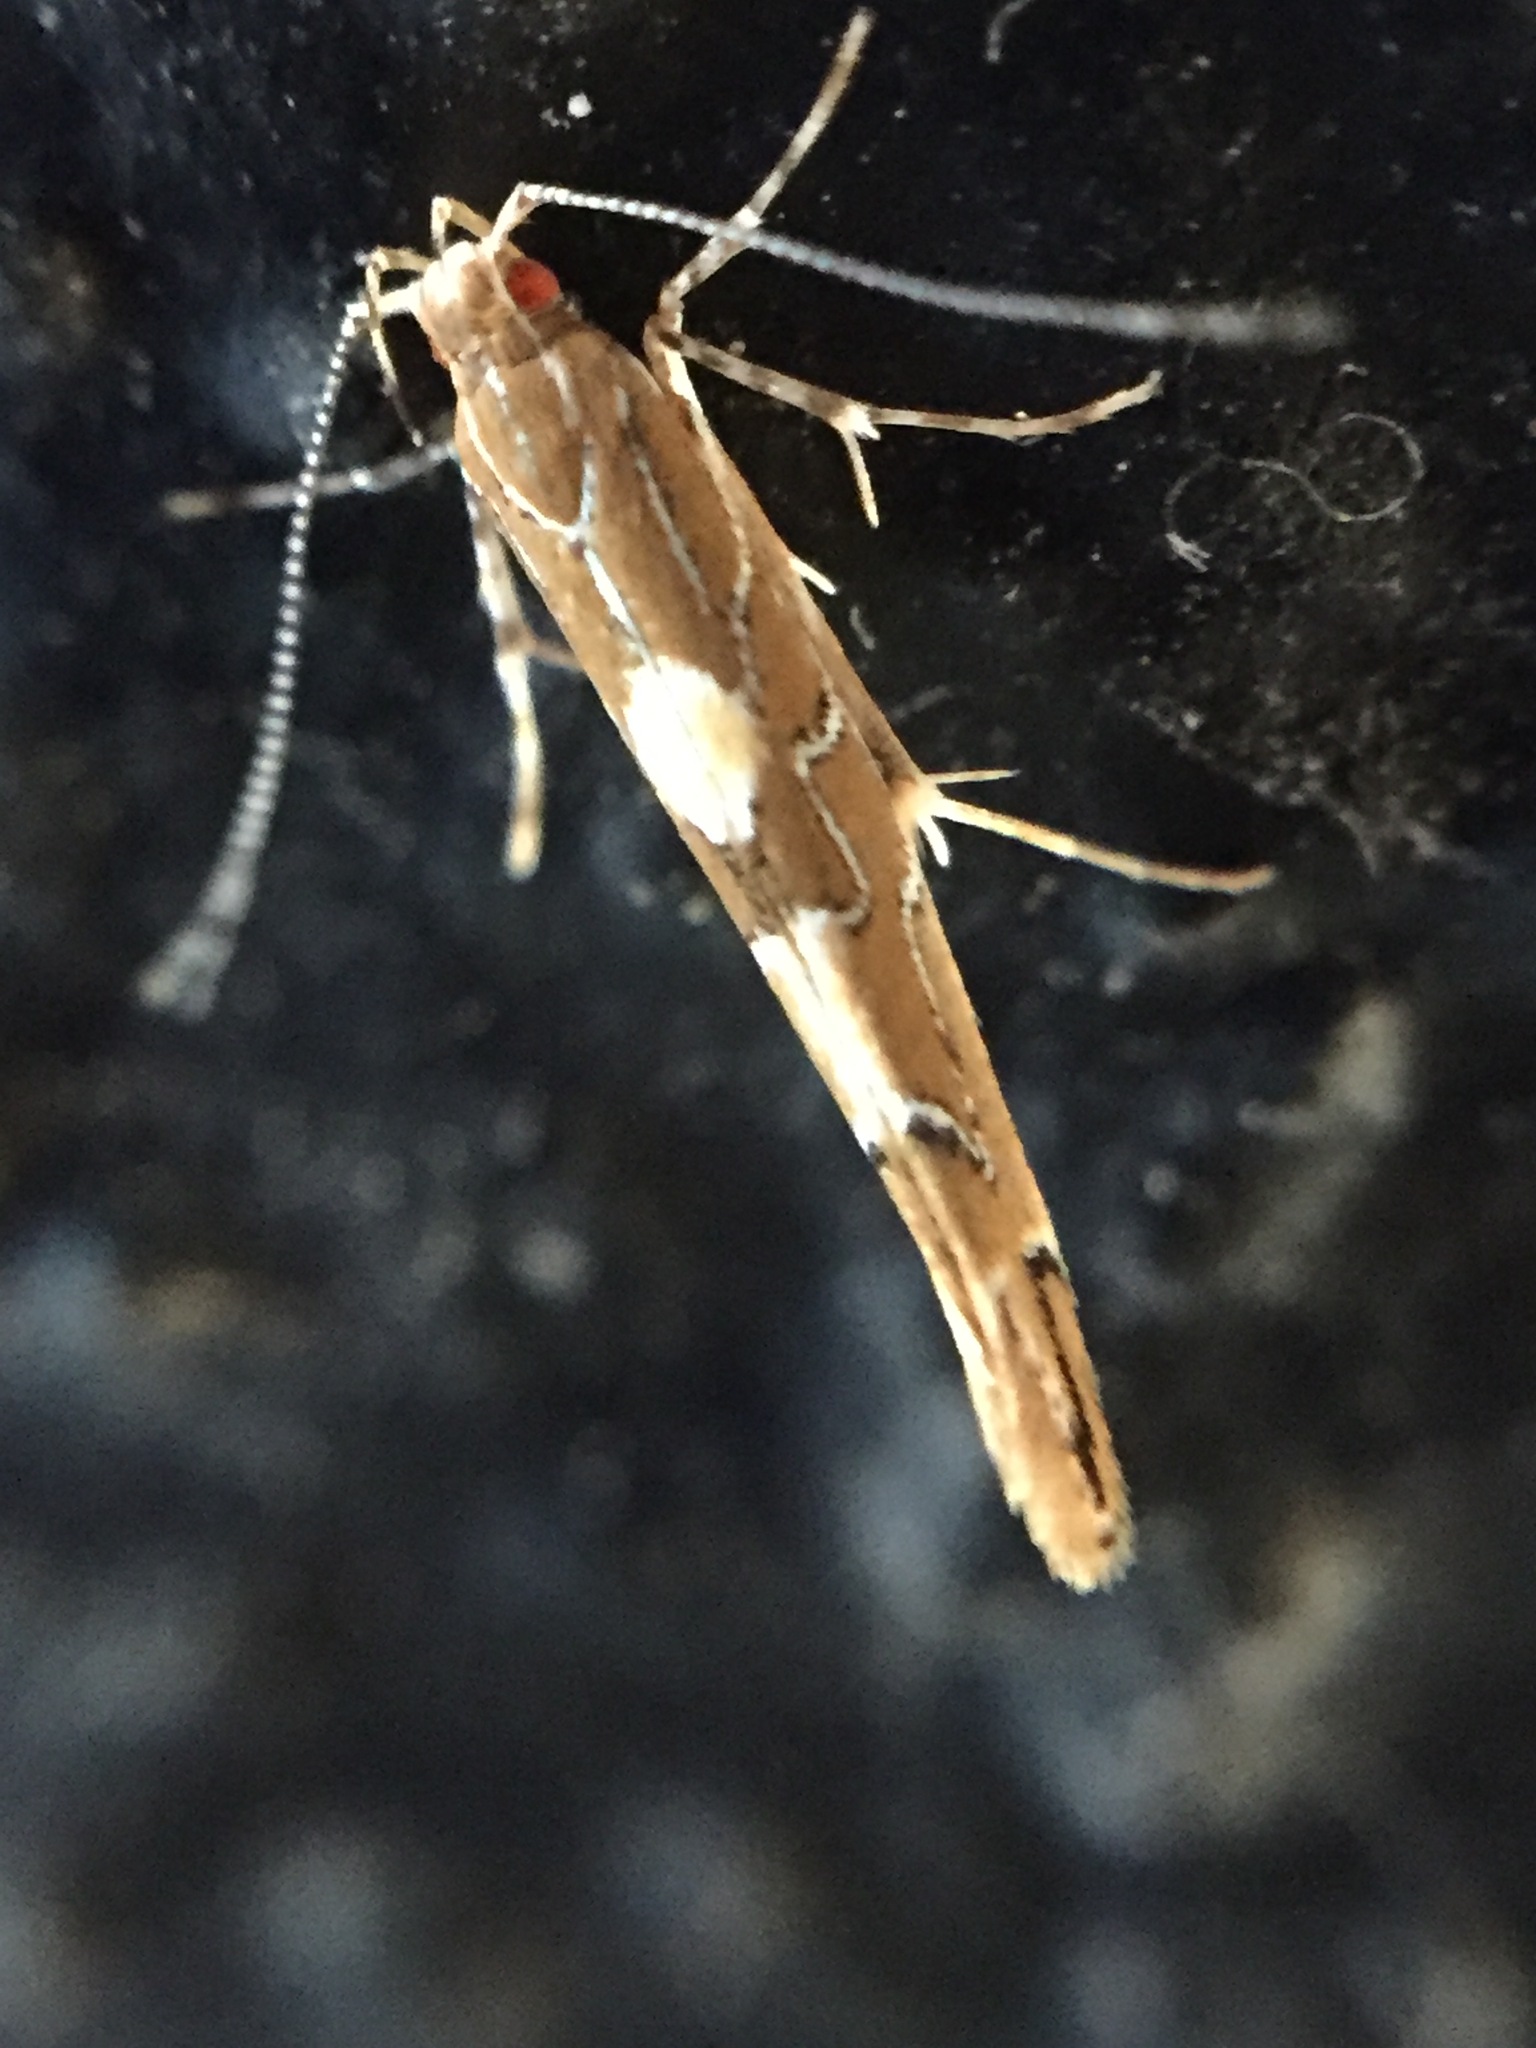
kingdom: Animalia
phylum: Arthropoda
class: Insecta
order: Lepidoptera
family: Cosmopterigidae
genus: Pyroderces
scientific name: Pyroderces apparitella
